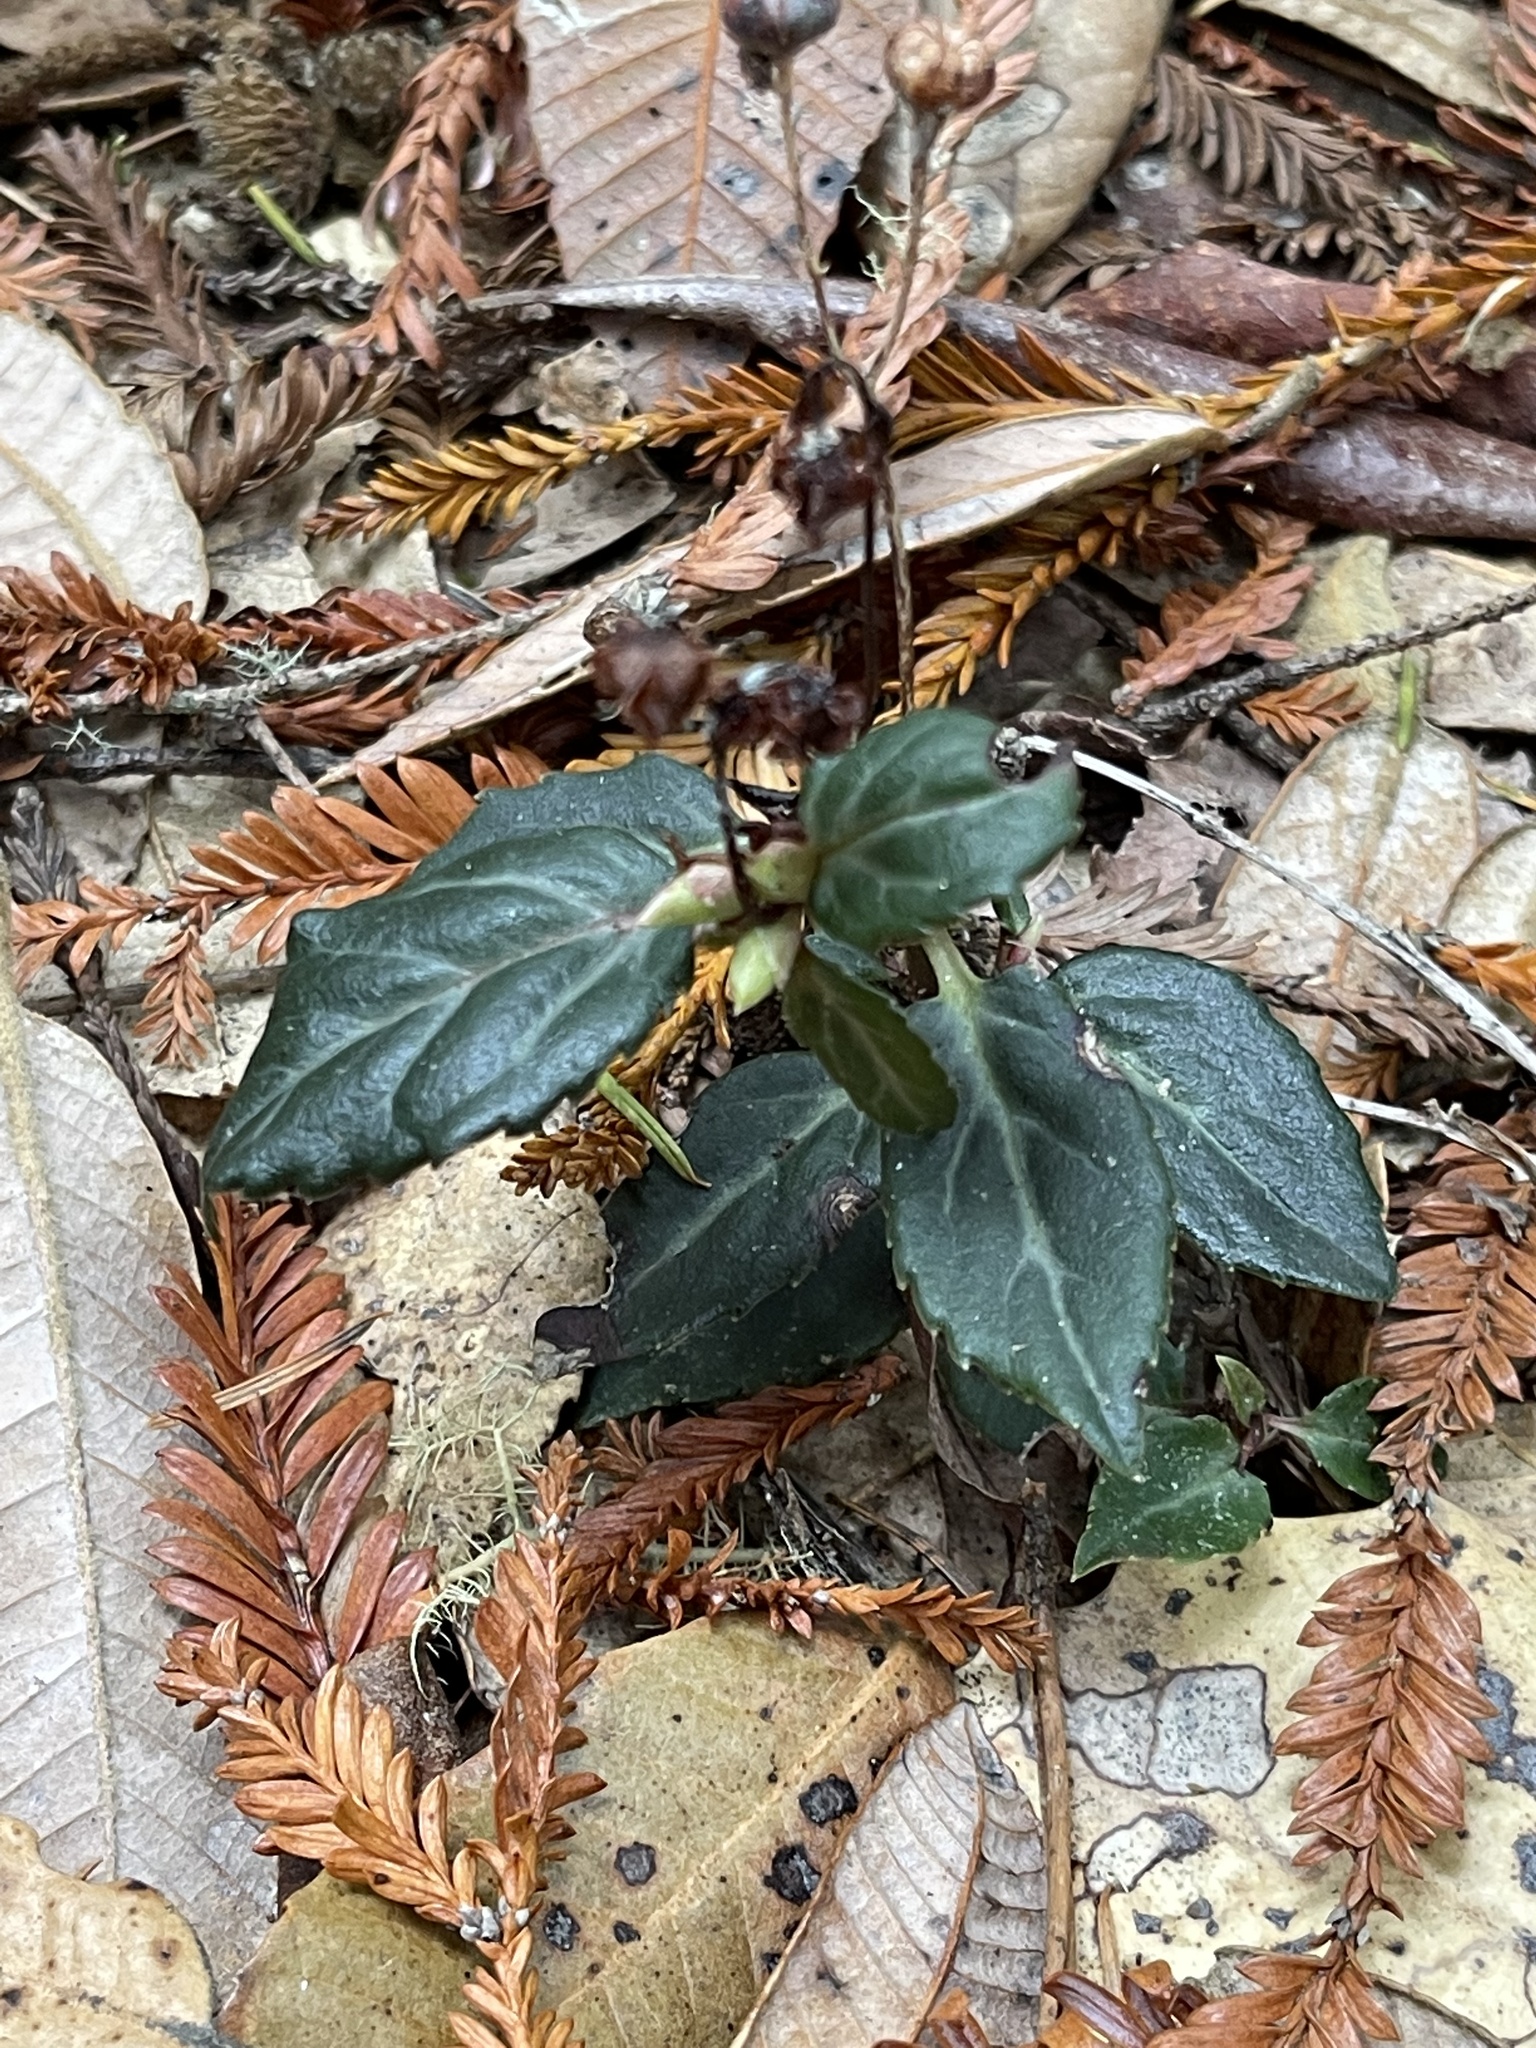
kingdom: Plantae
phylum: Tracheophyta
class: Magnoliopsida
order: Ericales
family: Ericaceae
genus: Chimaphila
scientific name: Chimaphila menziesii
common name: Menzies' pipsissewa
